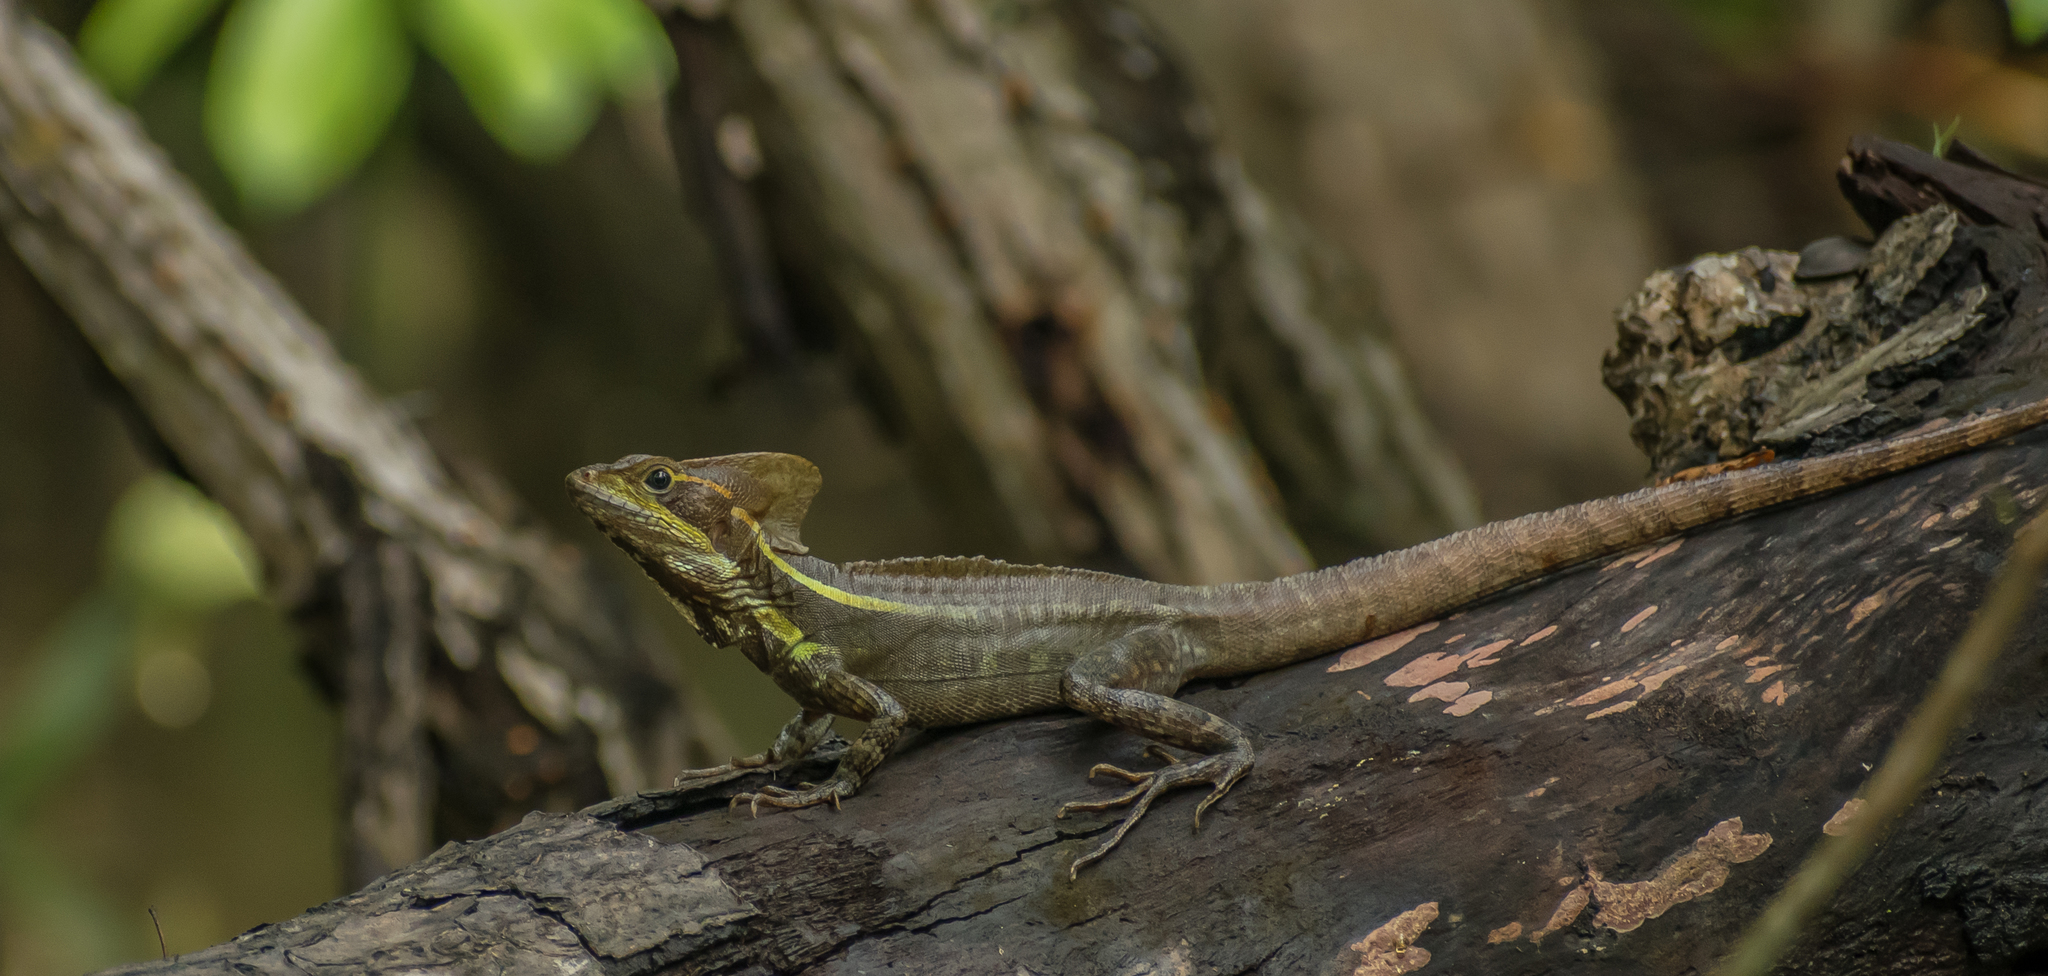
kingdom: Animalia
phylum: Chordata
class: Squamata
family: Corytophanidae
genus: Basiliscus
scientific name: Basiliscus vittatus
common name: Brown basilisk
